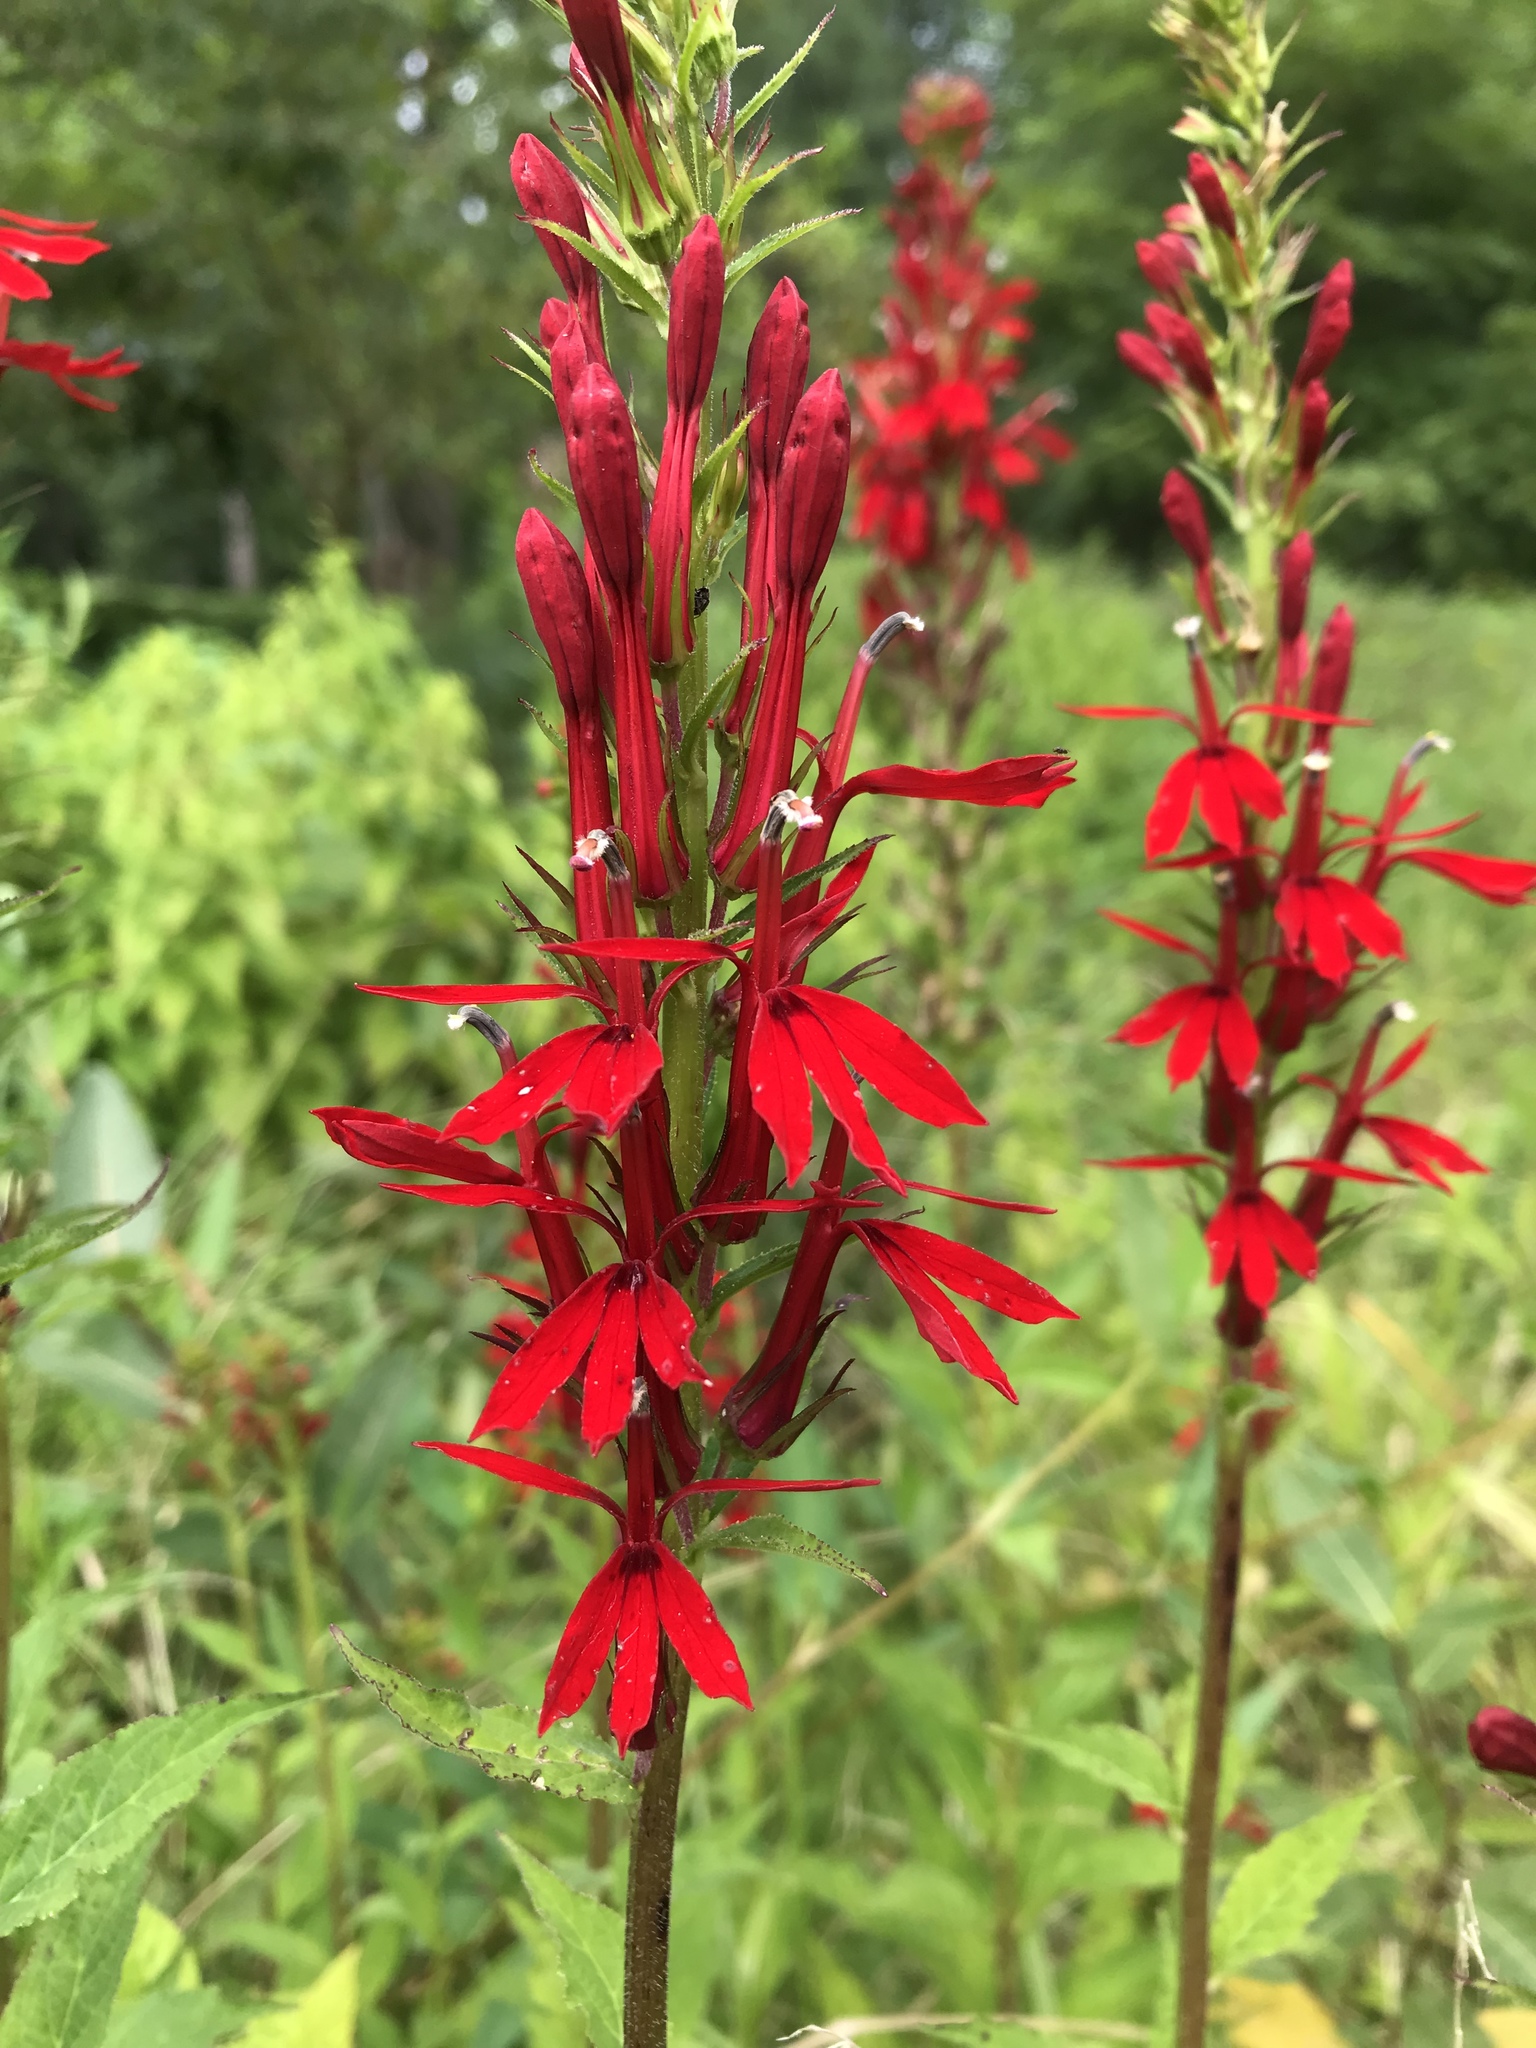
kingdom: Plantae
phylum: Tracheophyta
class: Magnoliopsida
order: Asterales
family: Campanulaceae
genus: Lobelia
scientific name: Lobelia cardinalis
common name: Cardinal flower
